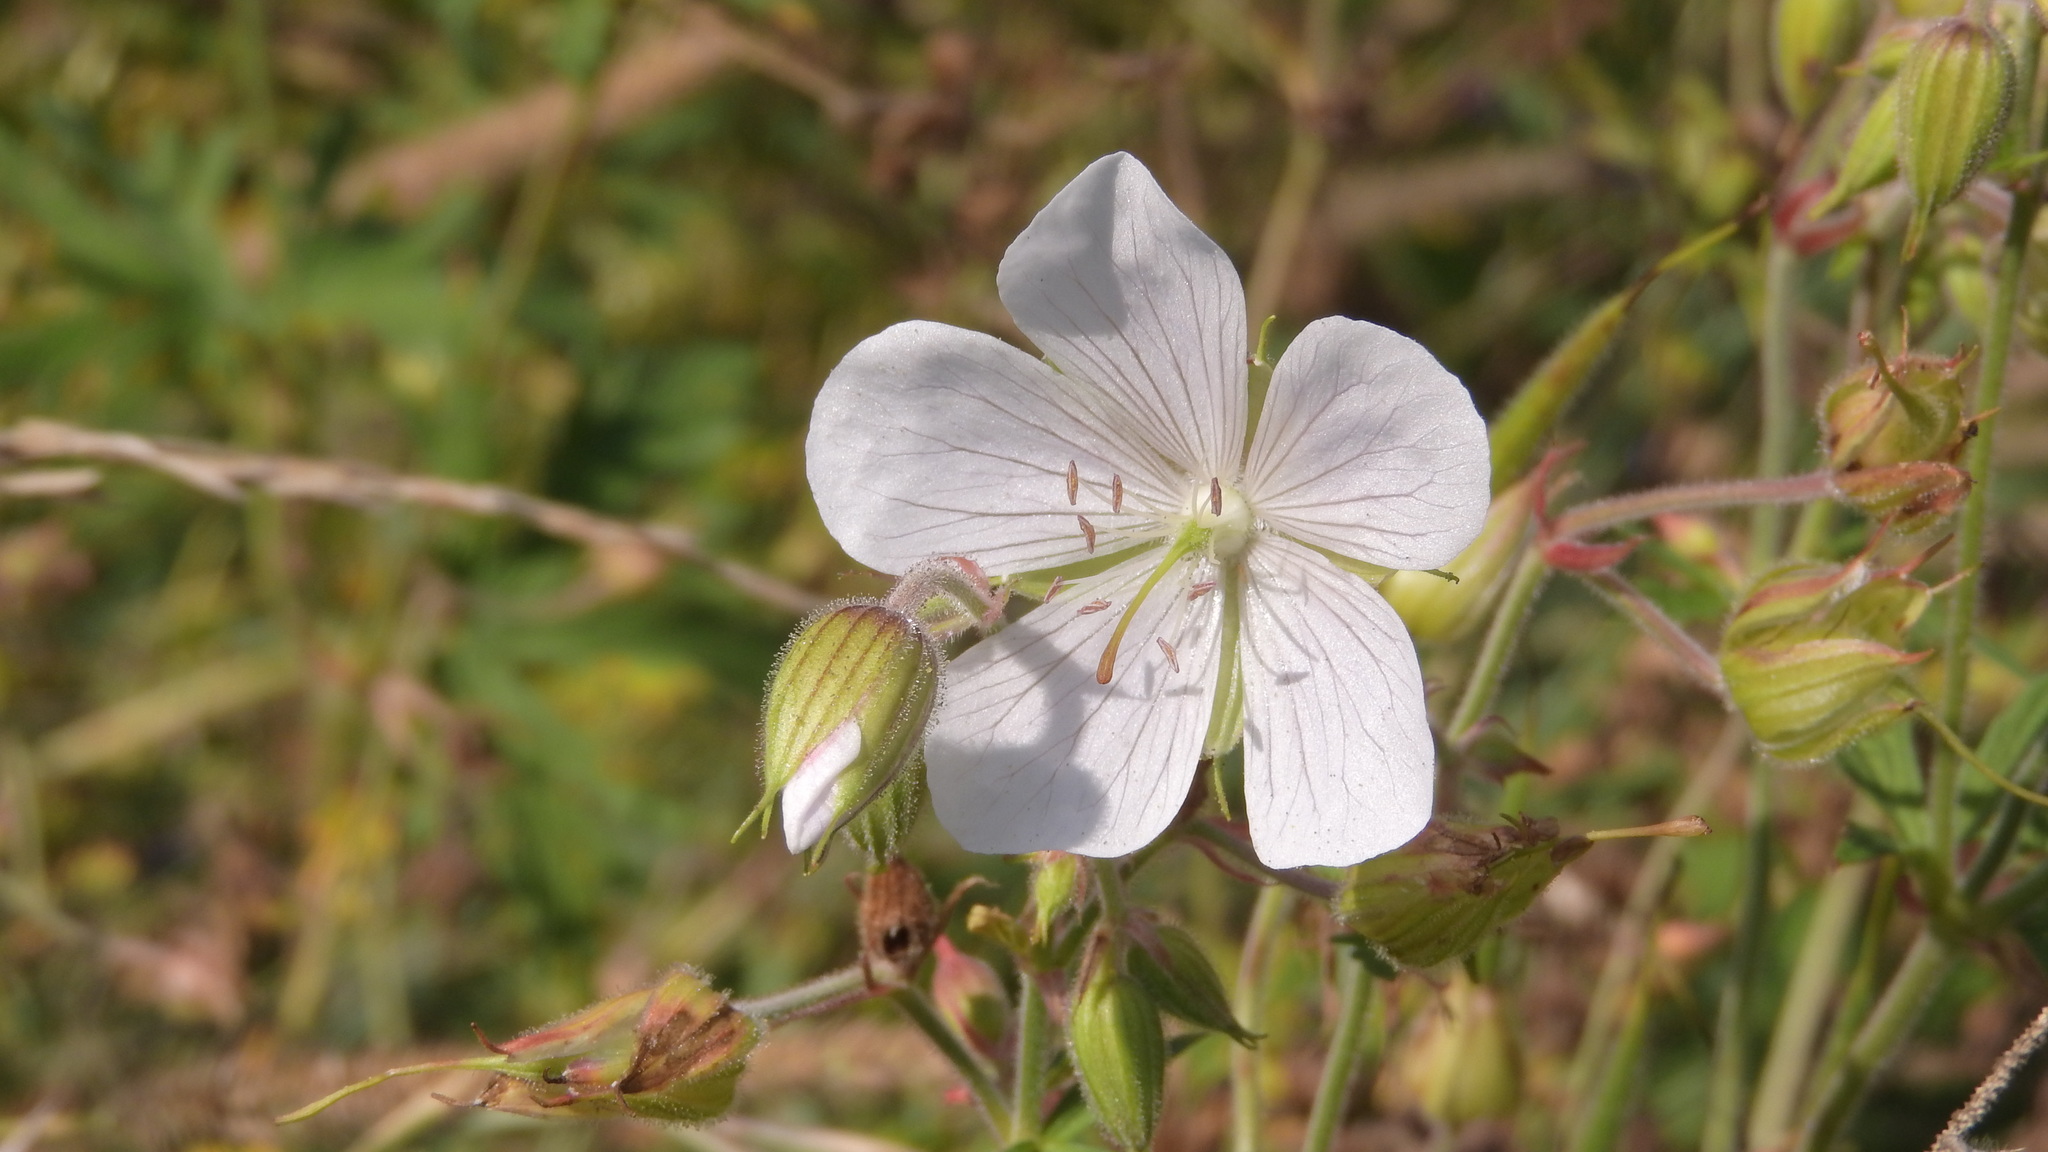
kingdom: Plantae
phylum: Tracheophyta
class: Magnoliopsida
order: Geraniales
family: Geraniaceae
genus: Geranium
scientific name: Geranium pratense
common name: Meadow crane's-bill
